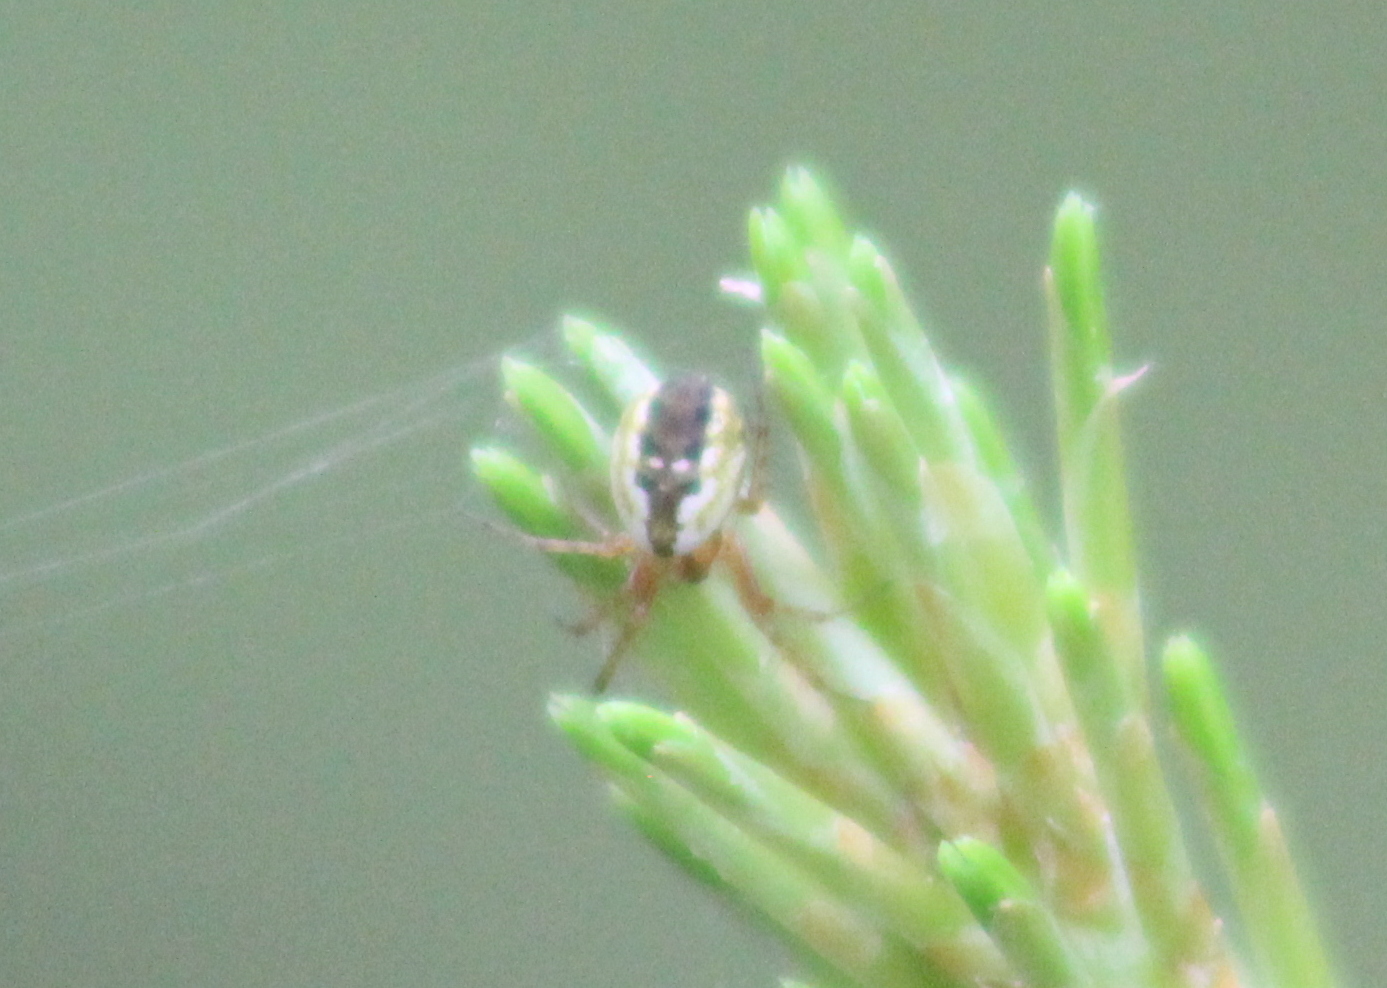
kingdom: Animalia
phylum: Arthropoda
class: Arachnida
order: Araneae
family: Araneidae
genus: Mangora
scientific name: Mangora placida
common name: Tuft-legged orbweaver
